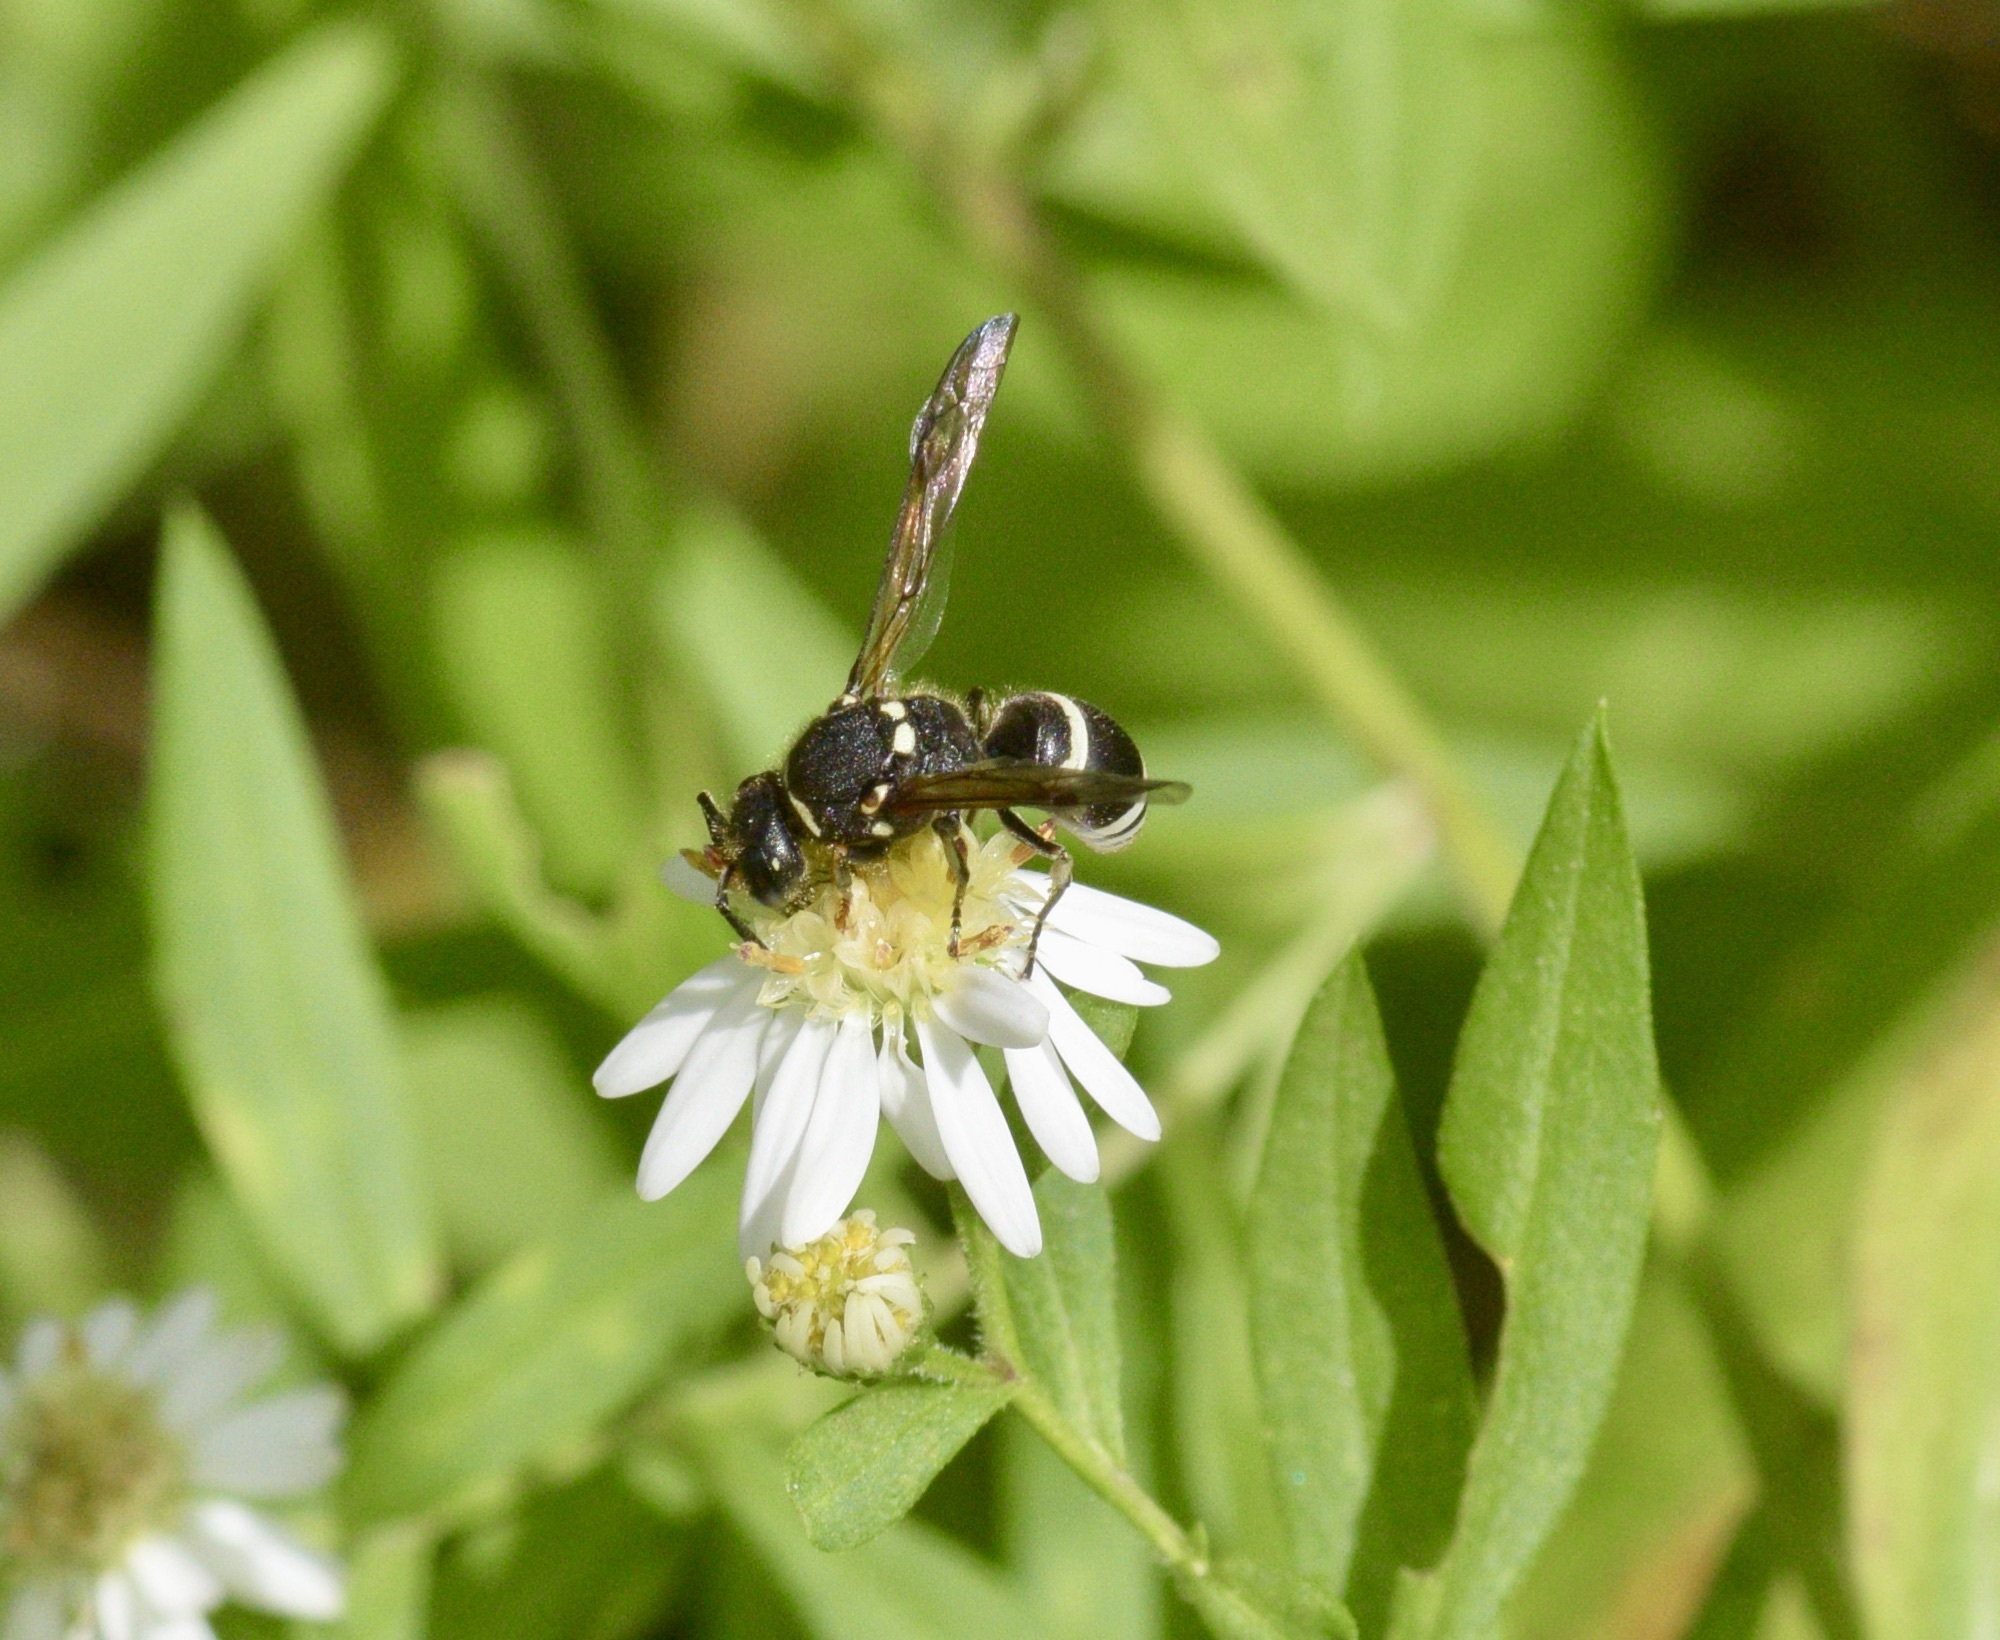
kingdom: Animalia
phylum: Arthropoda
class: Insecta
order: Hymenoptera
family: Vespidae
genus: Ancistrocerus
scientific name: Ancistrocerus albophaleratus
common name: White-banded potter wasp
